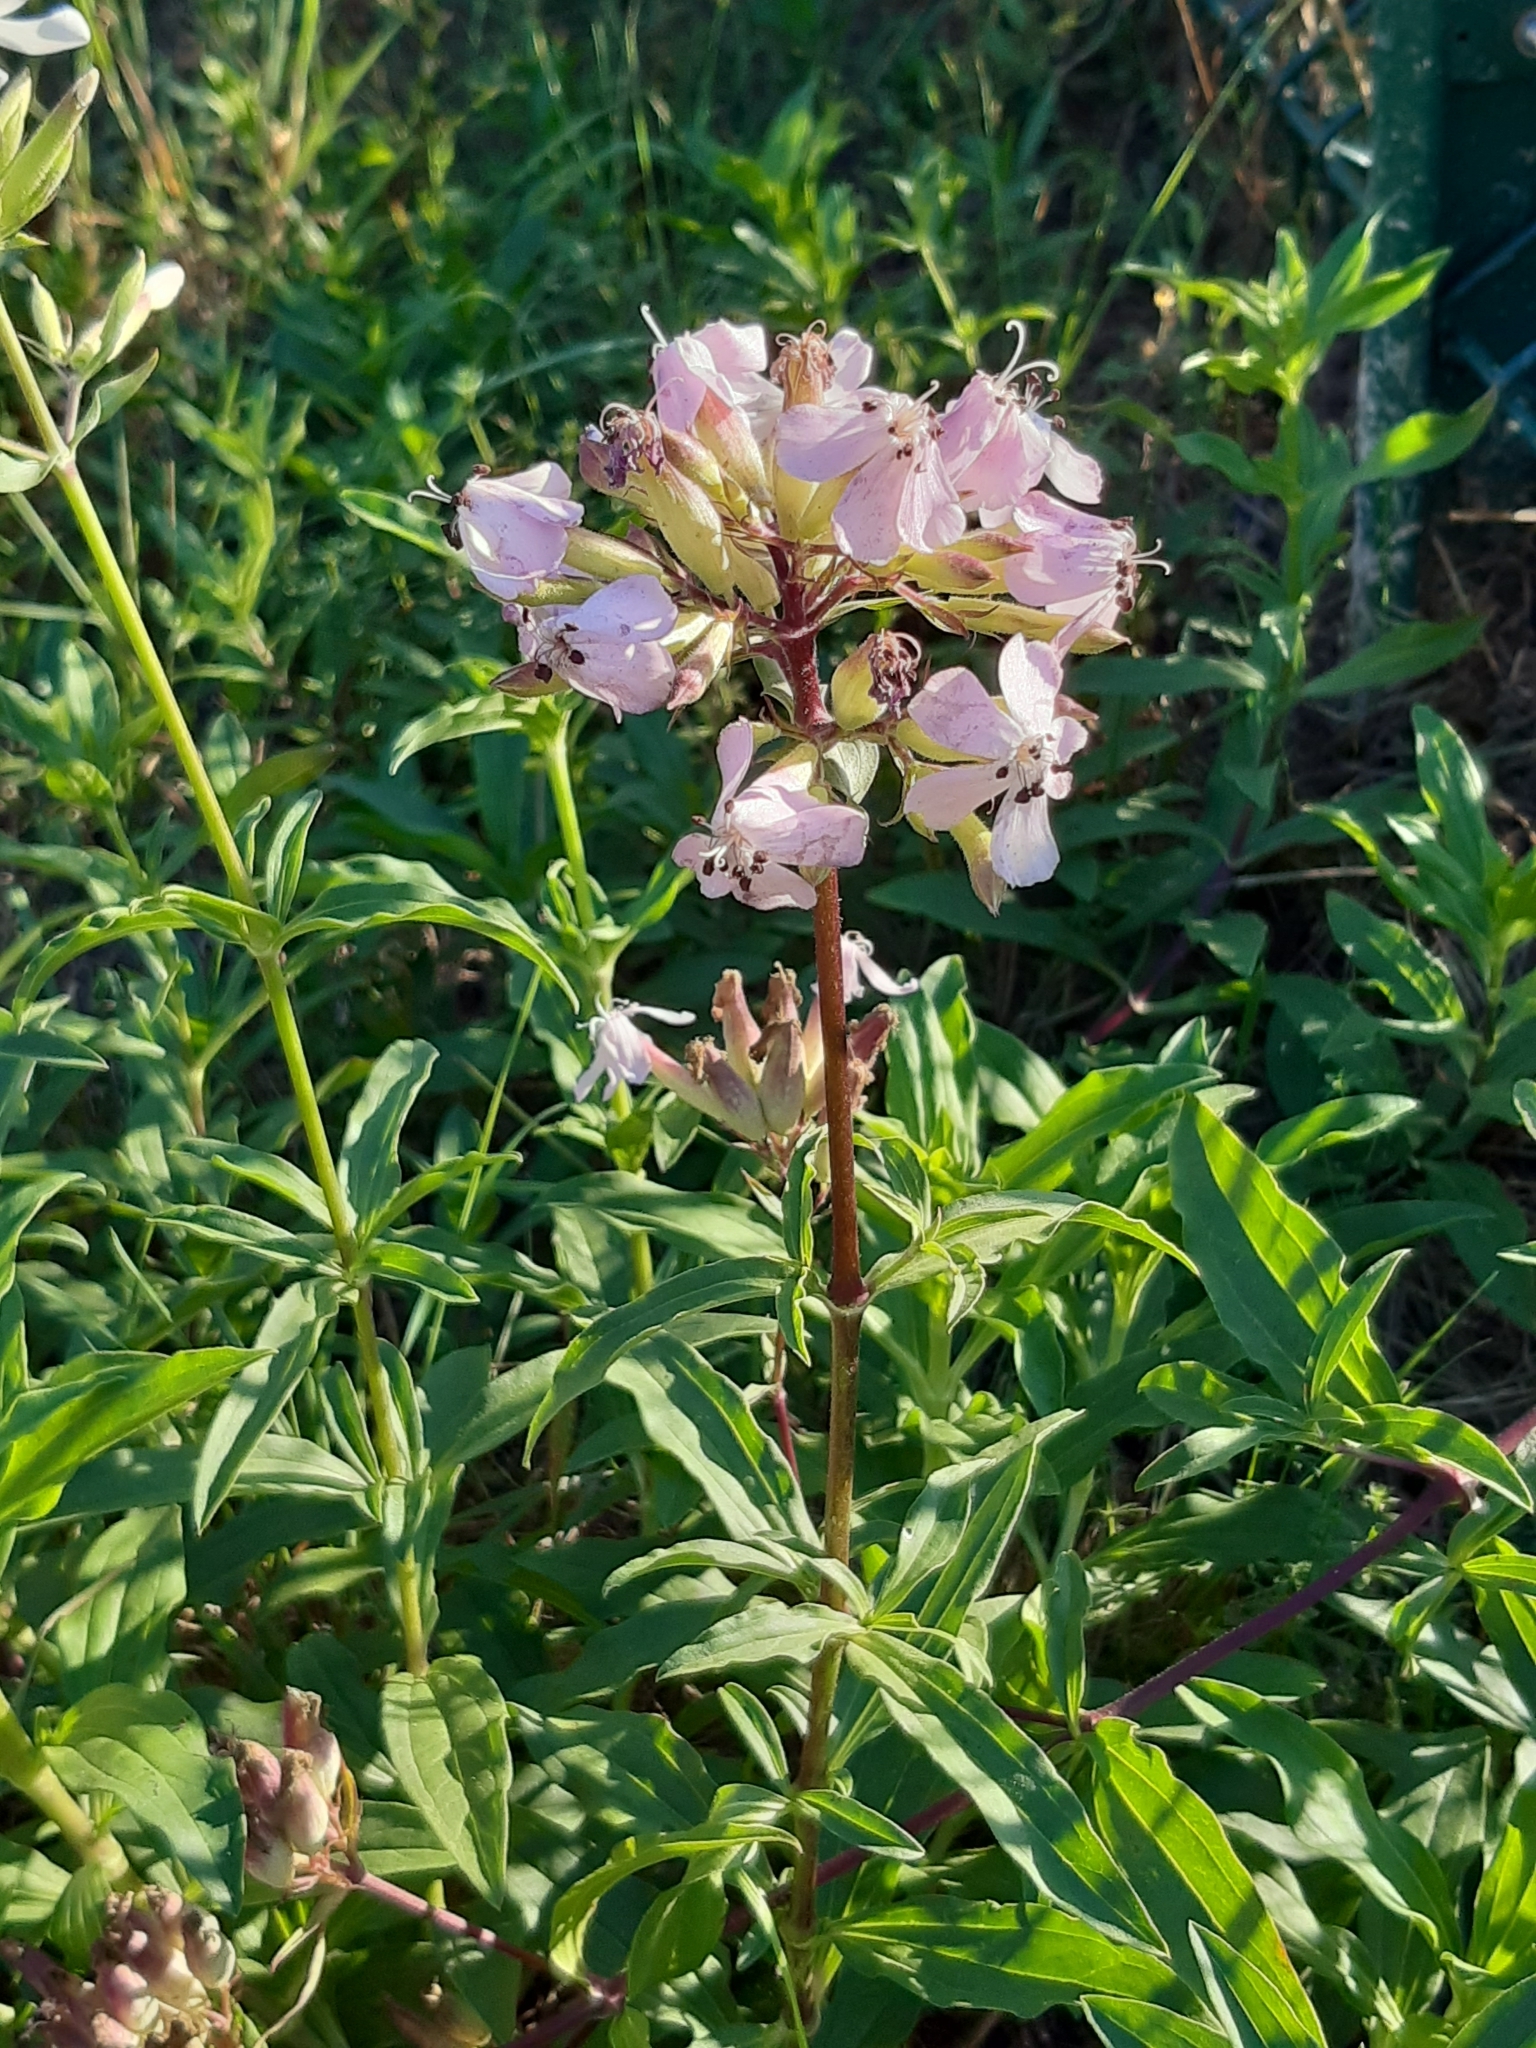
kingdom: Plantae
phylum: Tracheophyta
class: Magnoliopsida
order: Caryophyllales
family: Caryophyllaceae
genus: Saponaria
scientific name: Saponaria officinalis
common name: Soapwort
